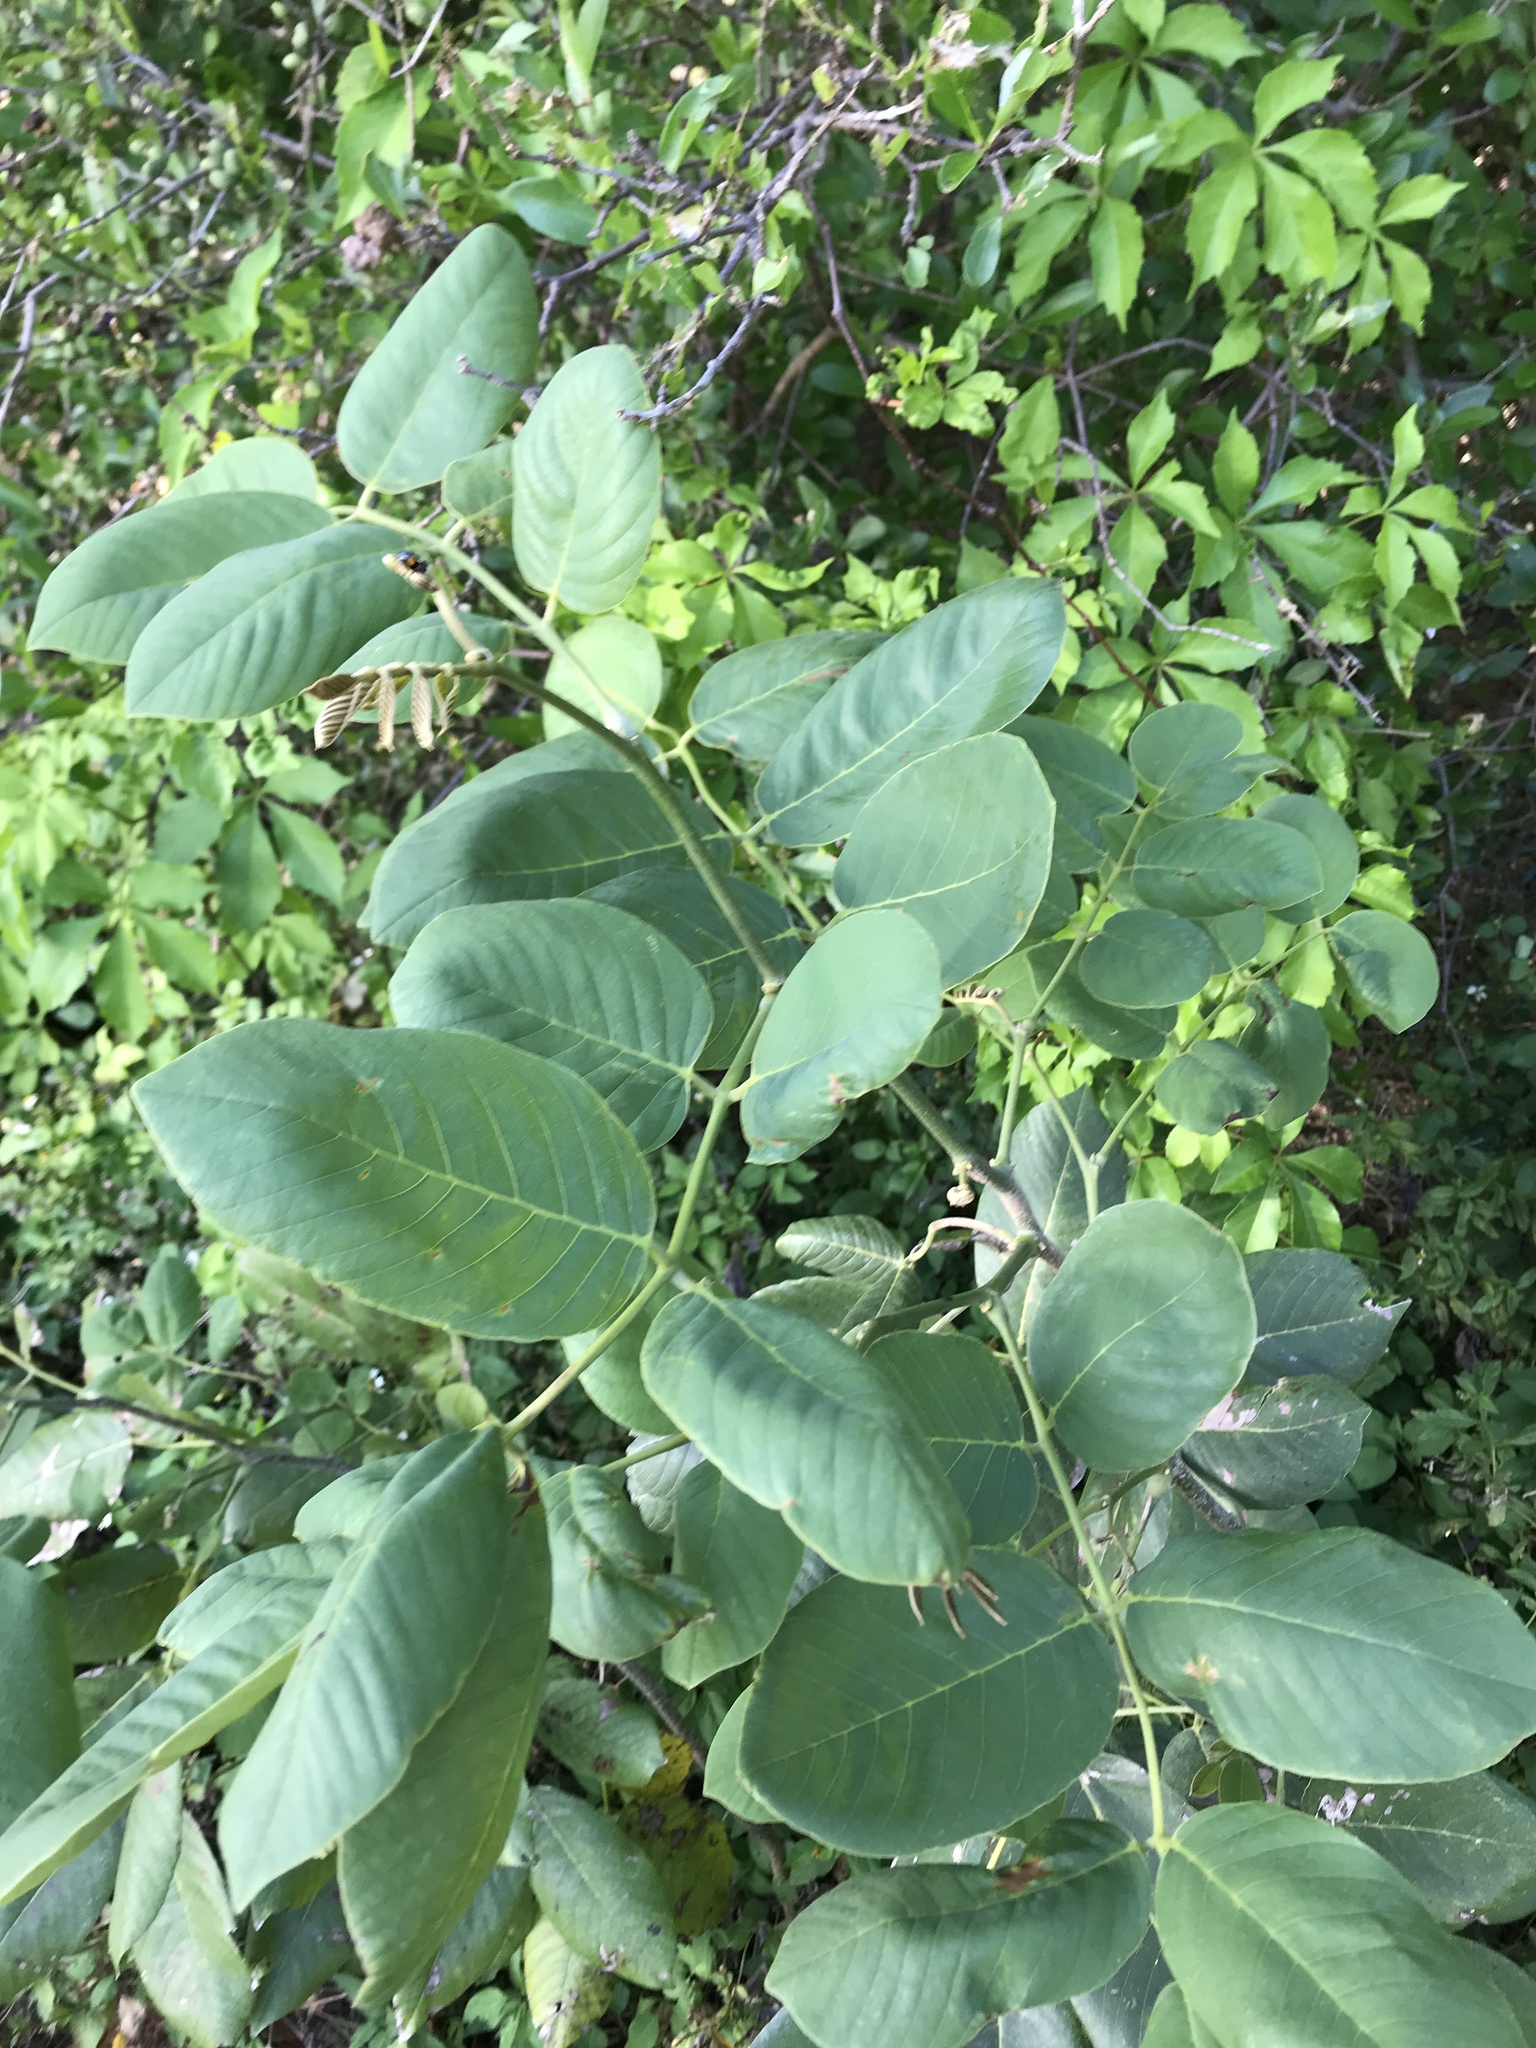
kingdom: Plantae
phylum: Tracheophyta
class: Magnoliopsida
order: Fabales
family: Fabaceae
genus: Piscidia
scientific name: Piscidia piscipula
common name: Florida fishpoison tree
